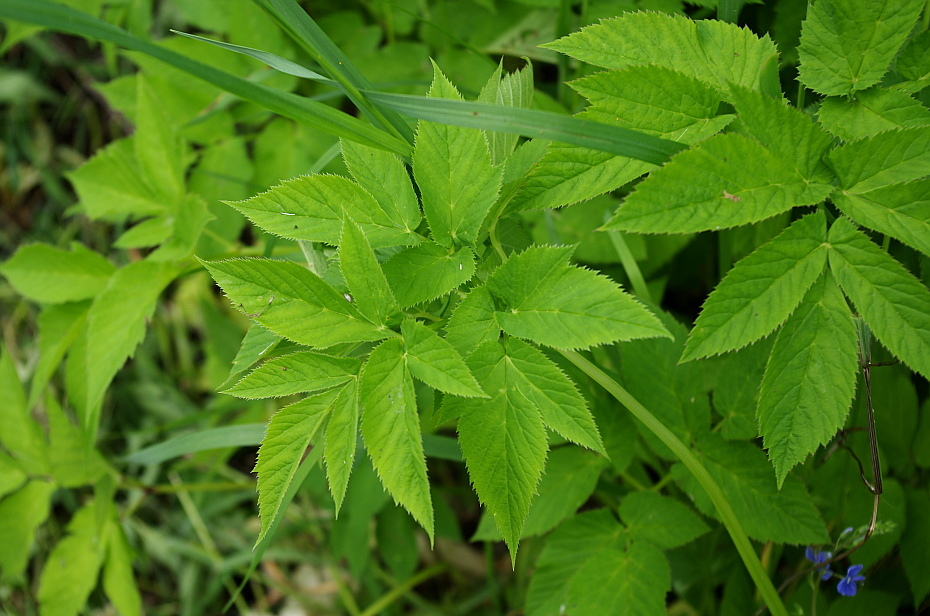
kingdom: Plantae
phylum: Tracheophyta
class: Magnoliopsida
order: Apiales
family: Apiaceae
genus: Aegopodium
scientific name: Aegopodium podagraria
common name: Ground-elder
